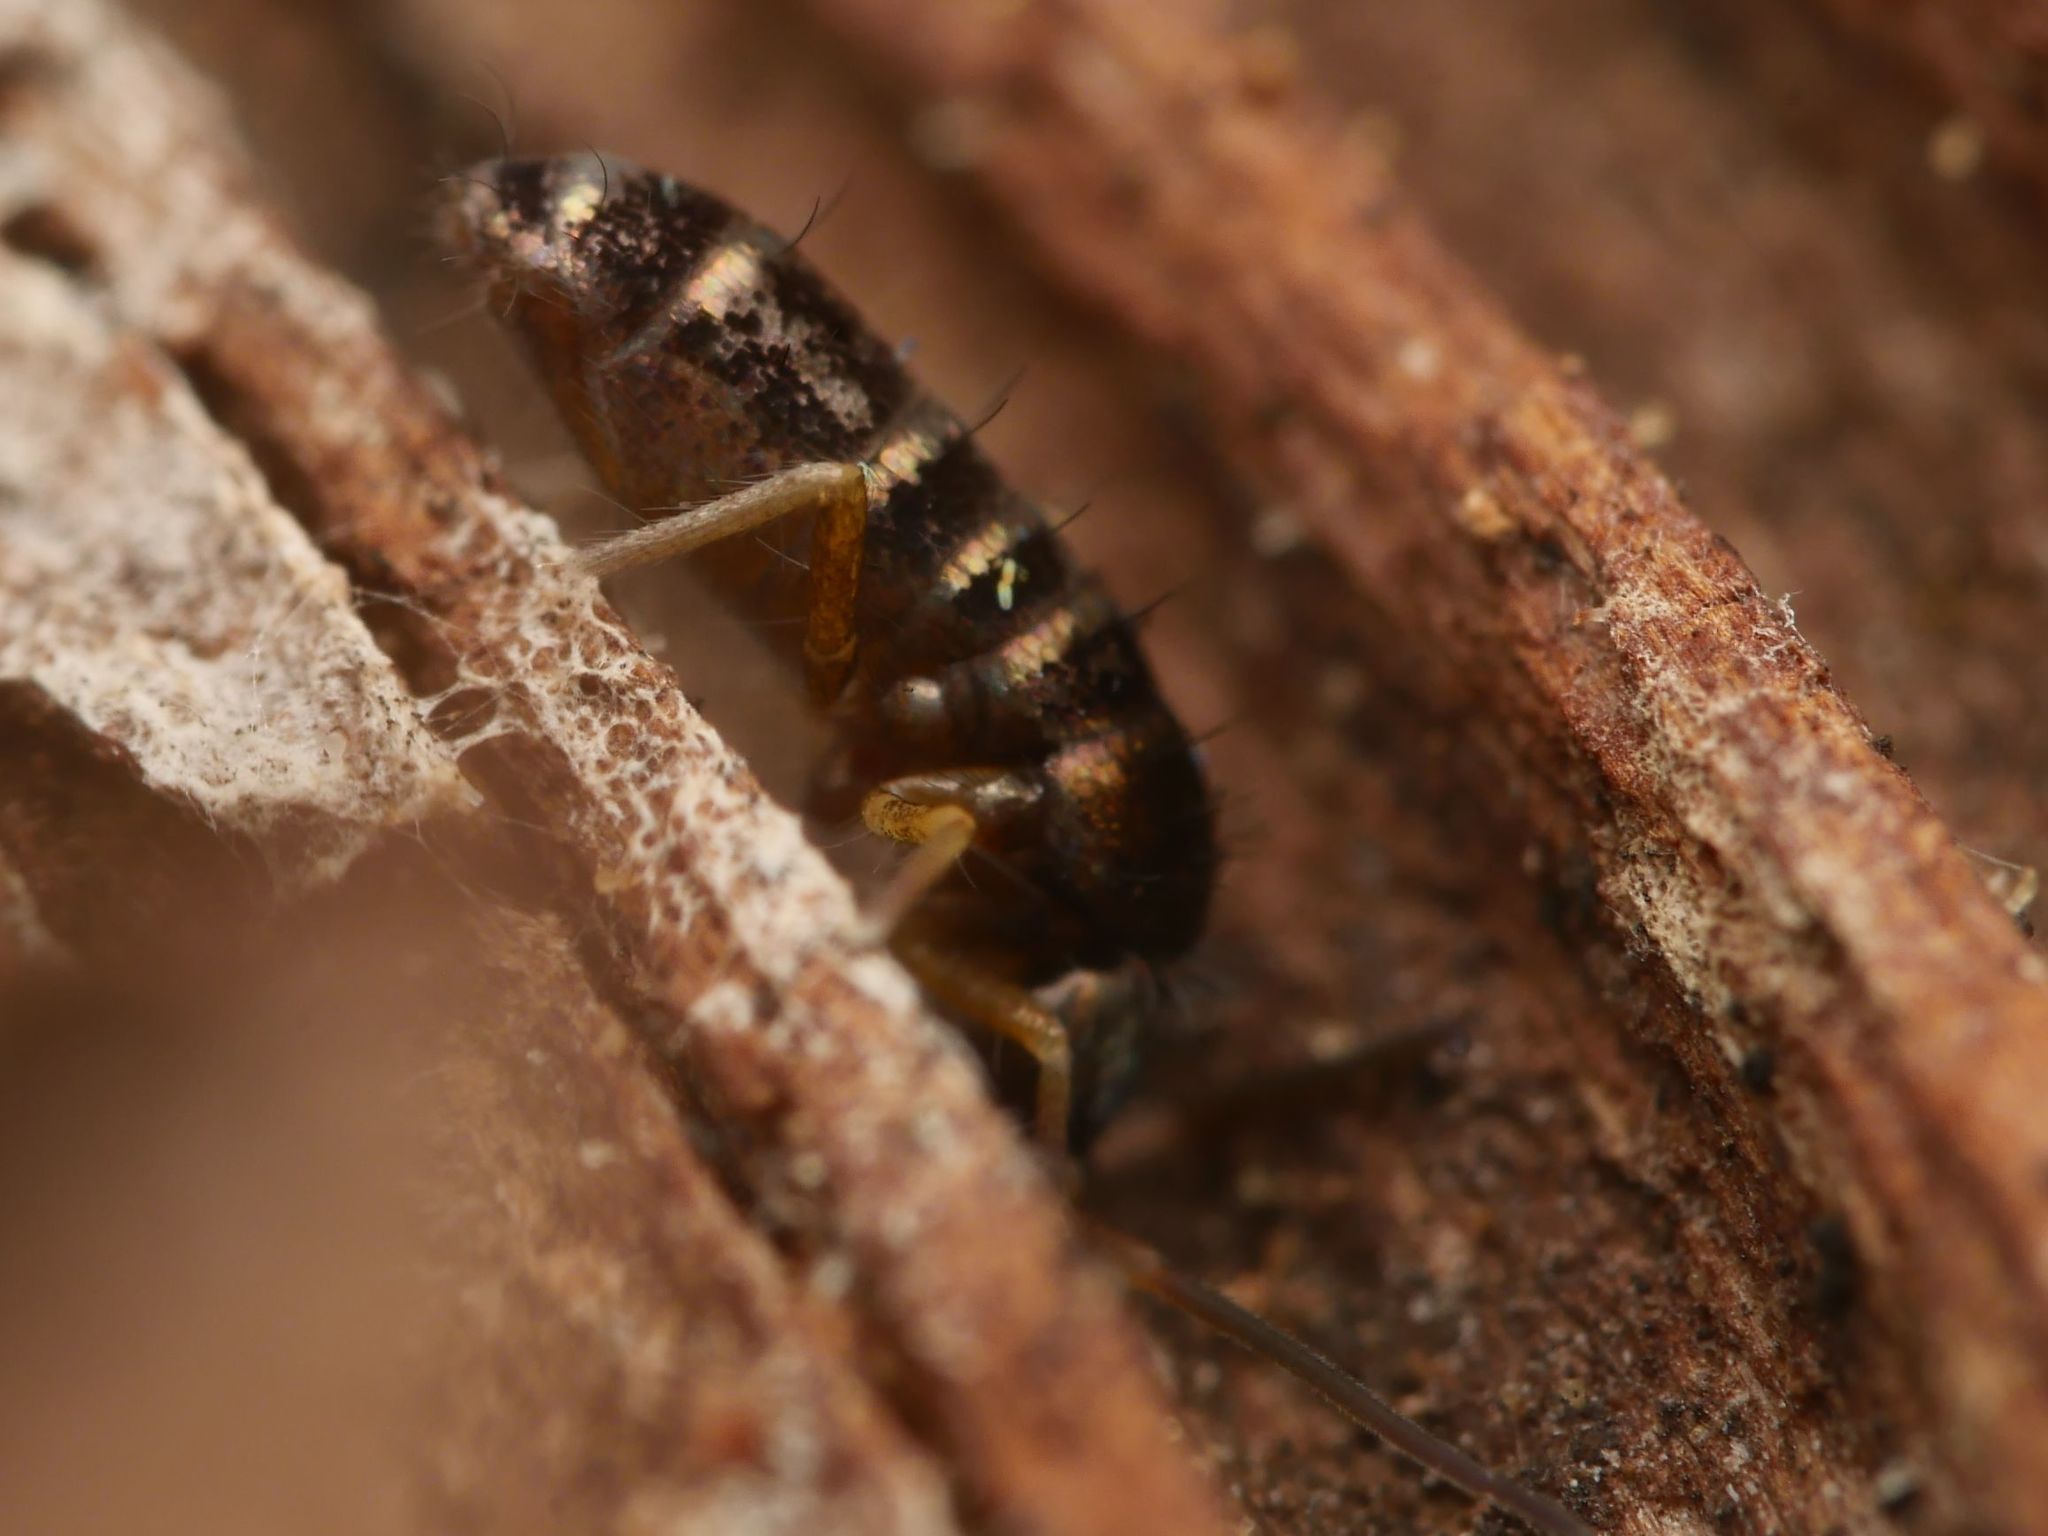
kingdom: Animalia
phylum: Arthropoda
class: Collembola
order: Entomobryomorpha
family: Tomoceridae
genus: Tomocerus
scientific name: Tomocerus vulgaris
